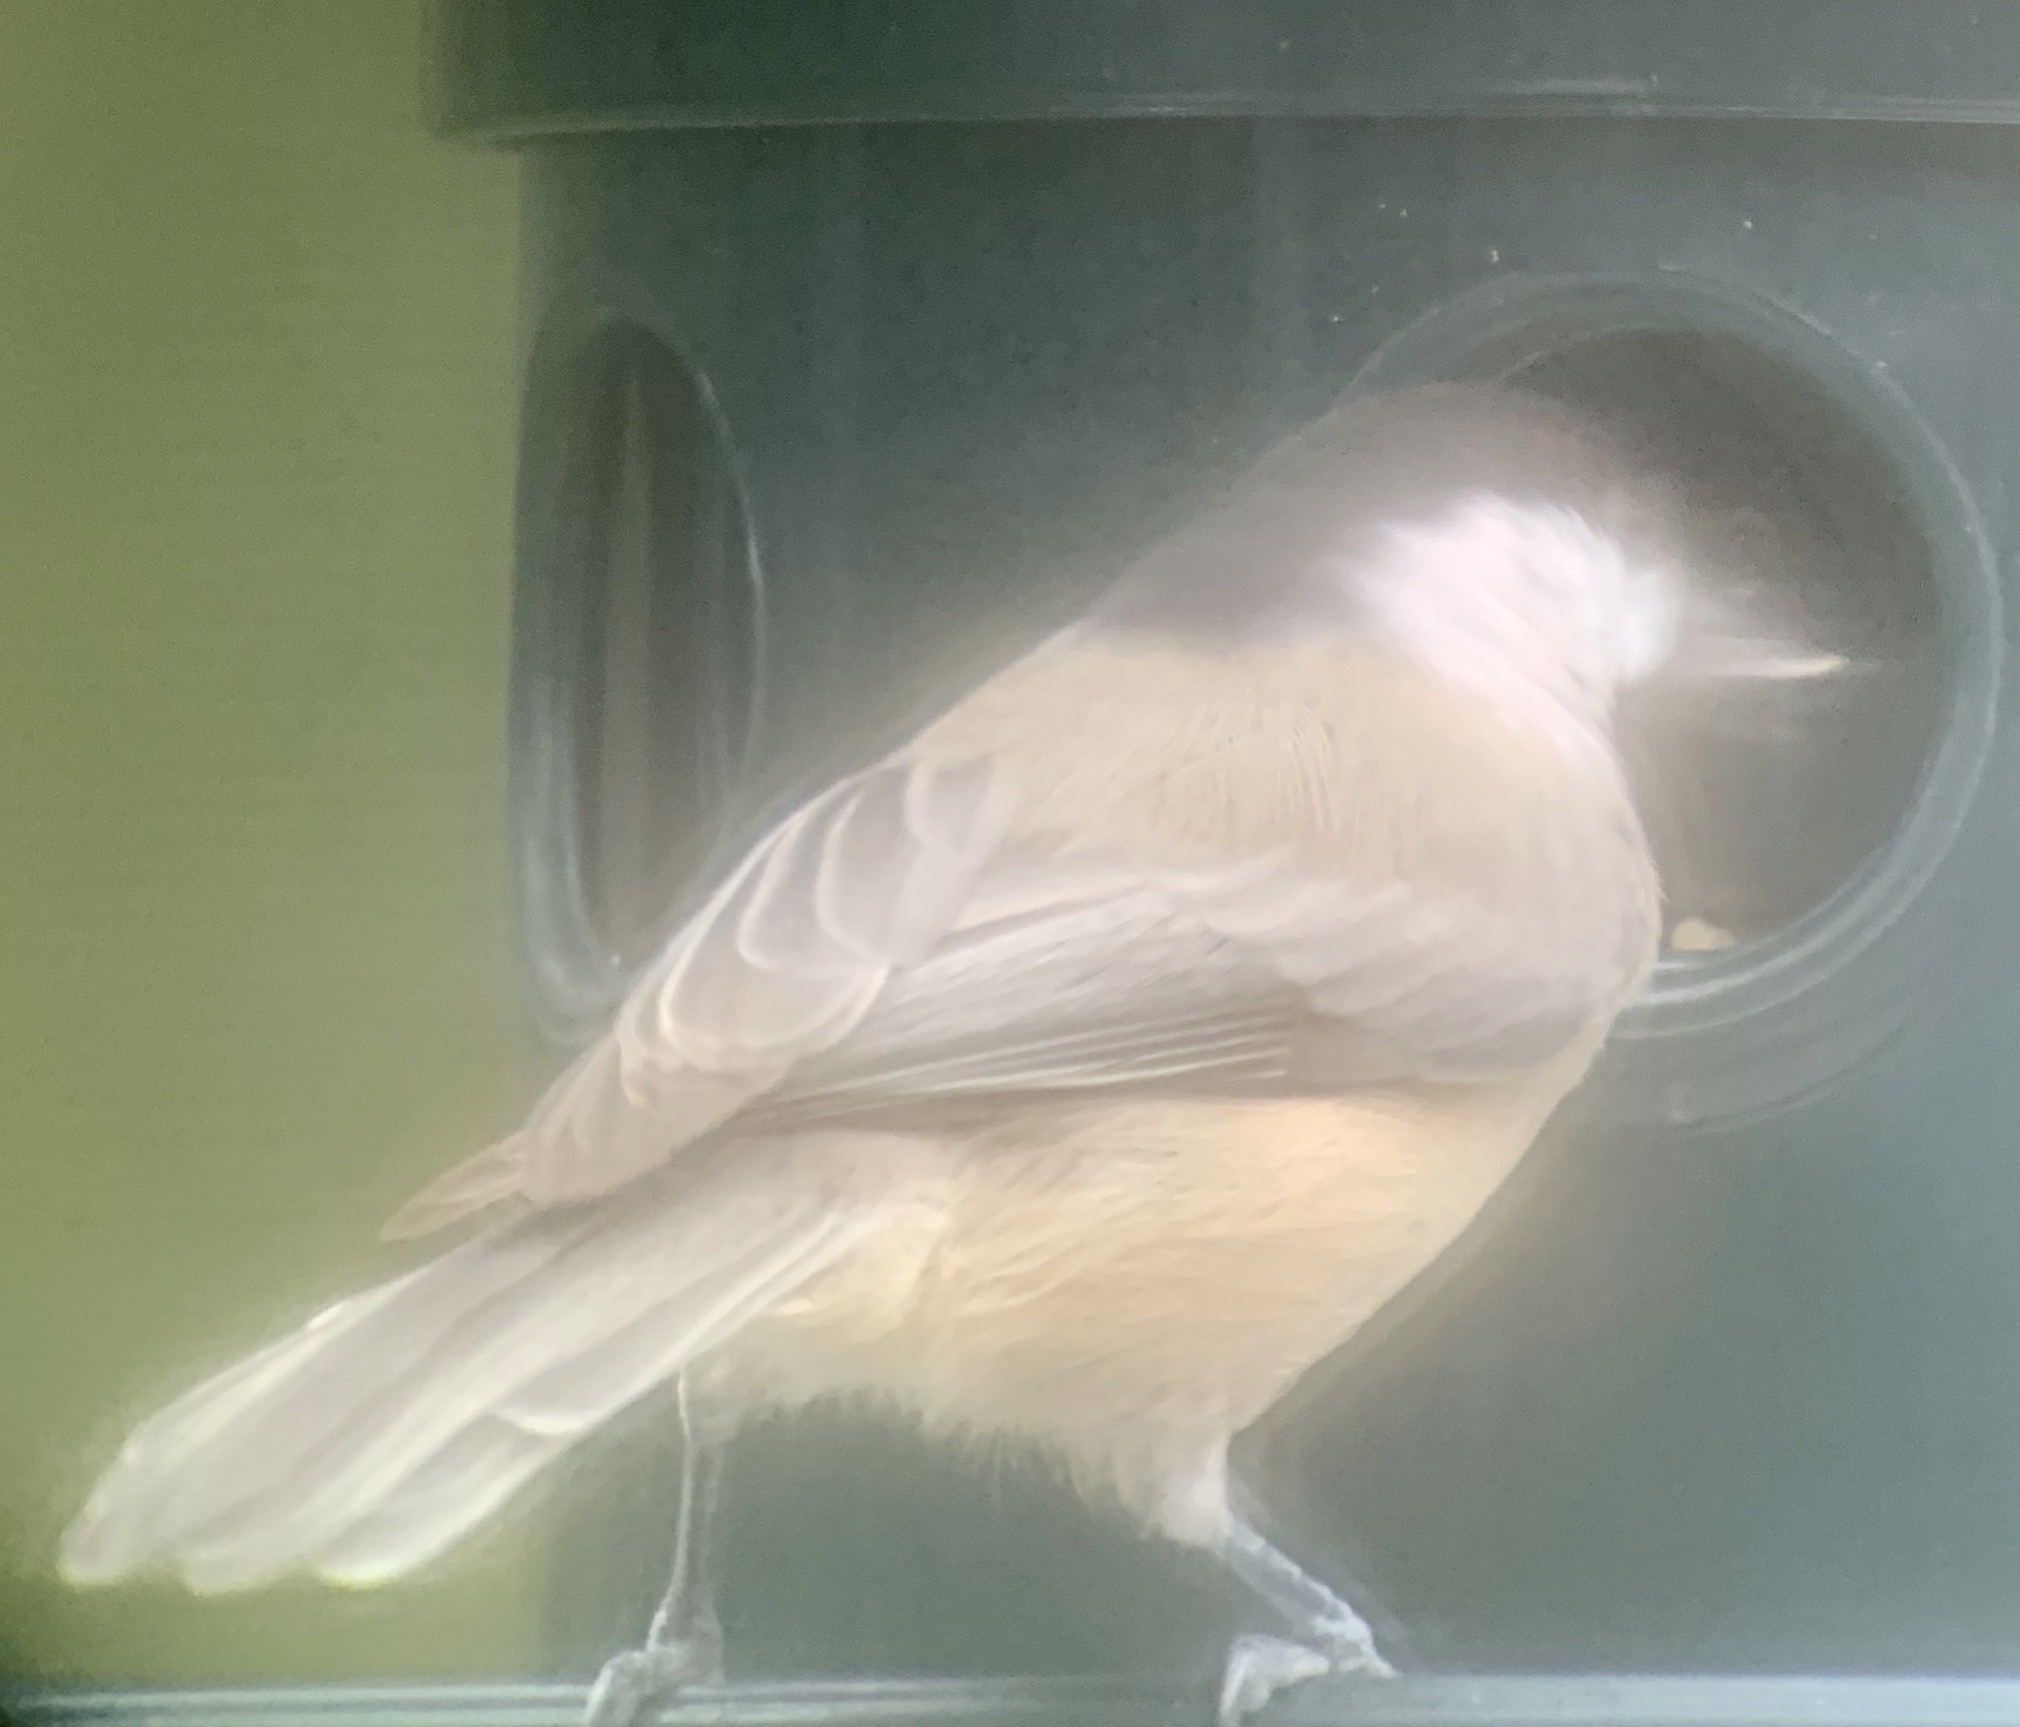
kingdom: Animalia
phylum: Chordata
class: Aves
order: Passeriformes
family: Paridae
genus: Poecile
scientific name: Poecile carolinensis
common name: Carolina chickadee
